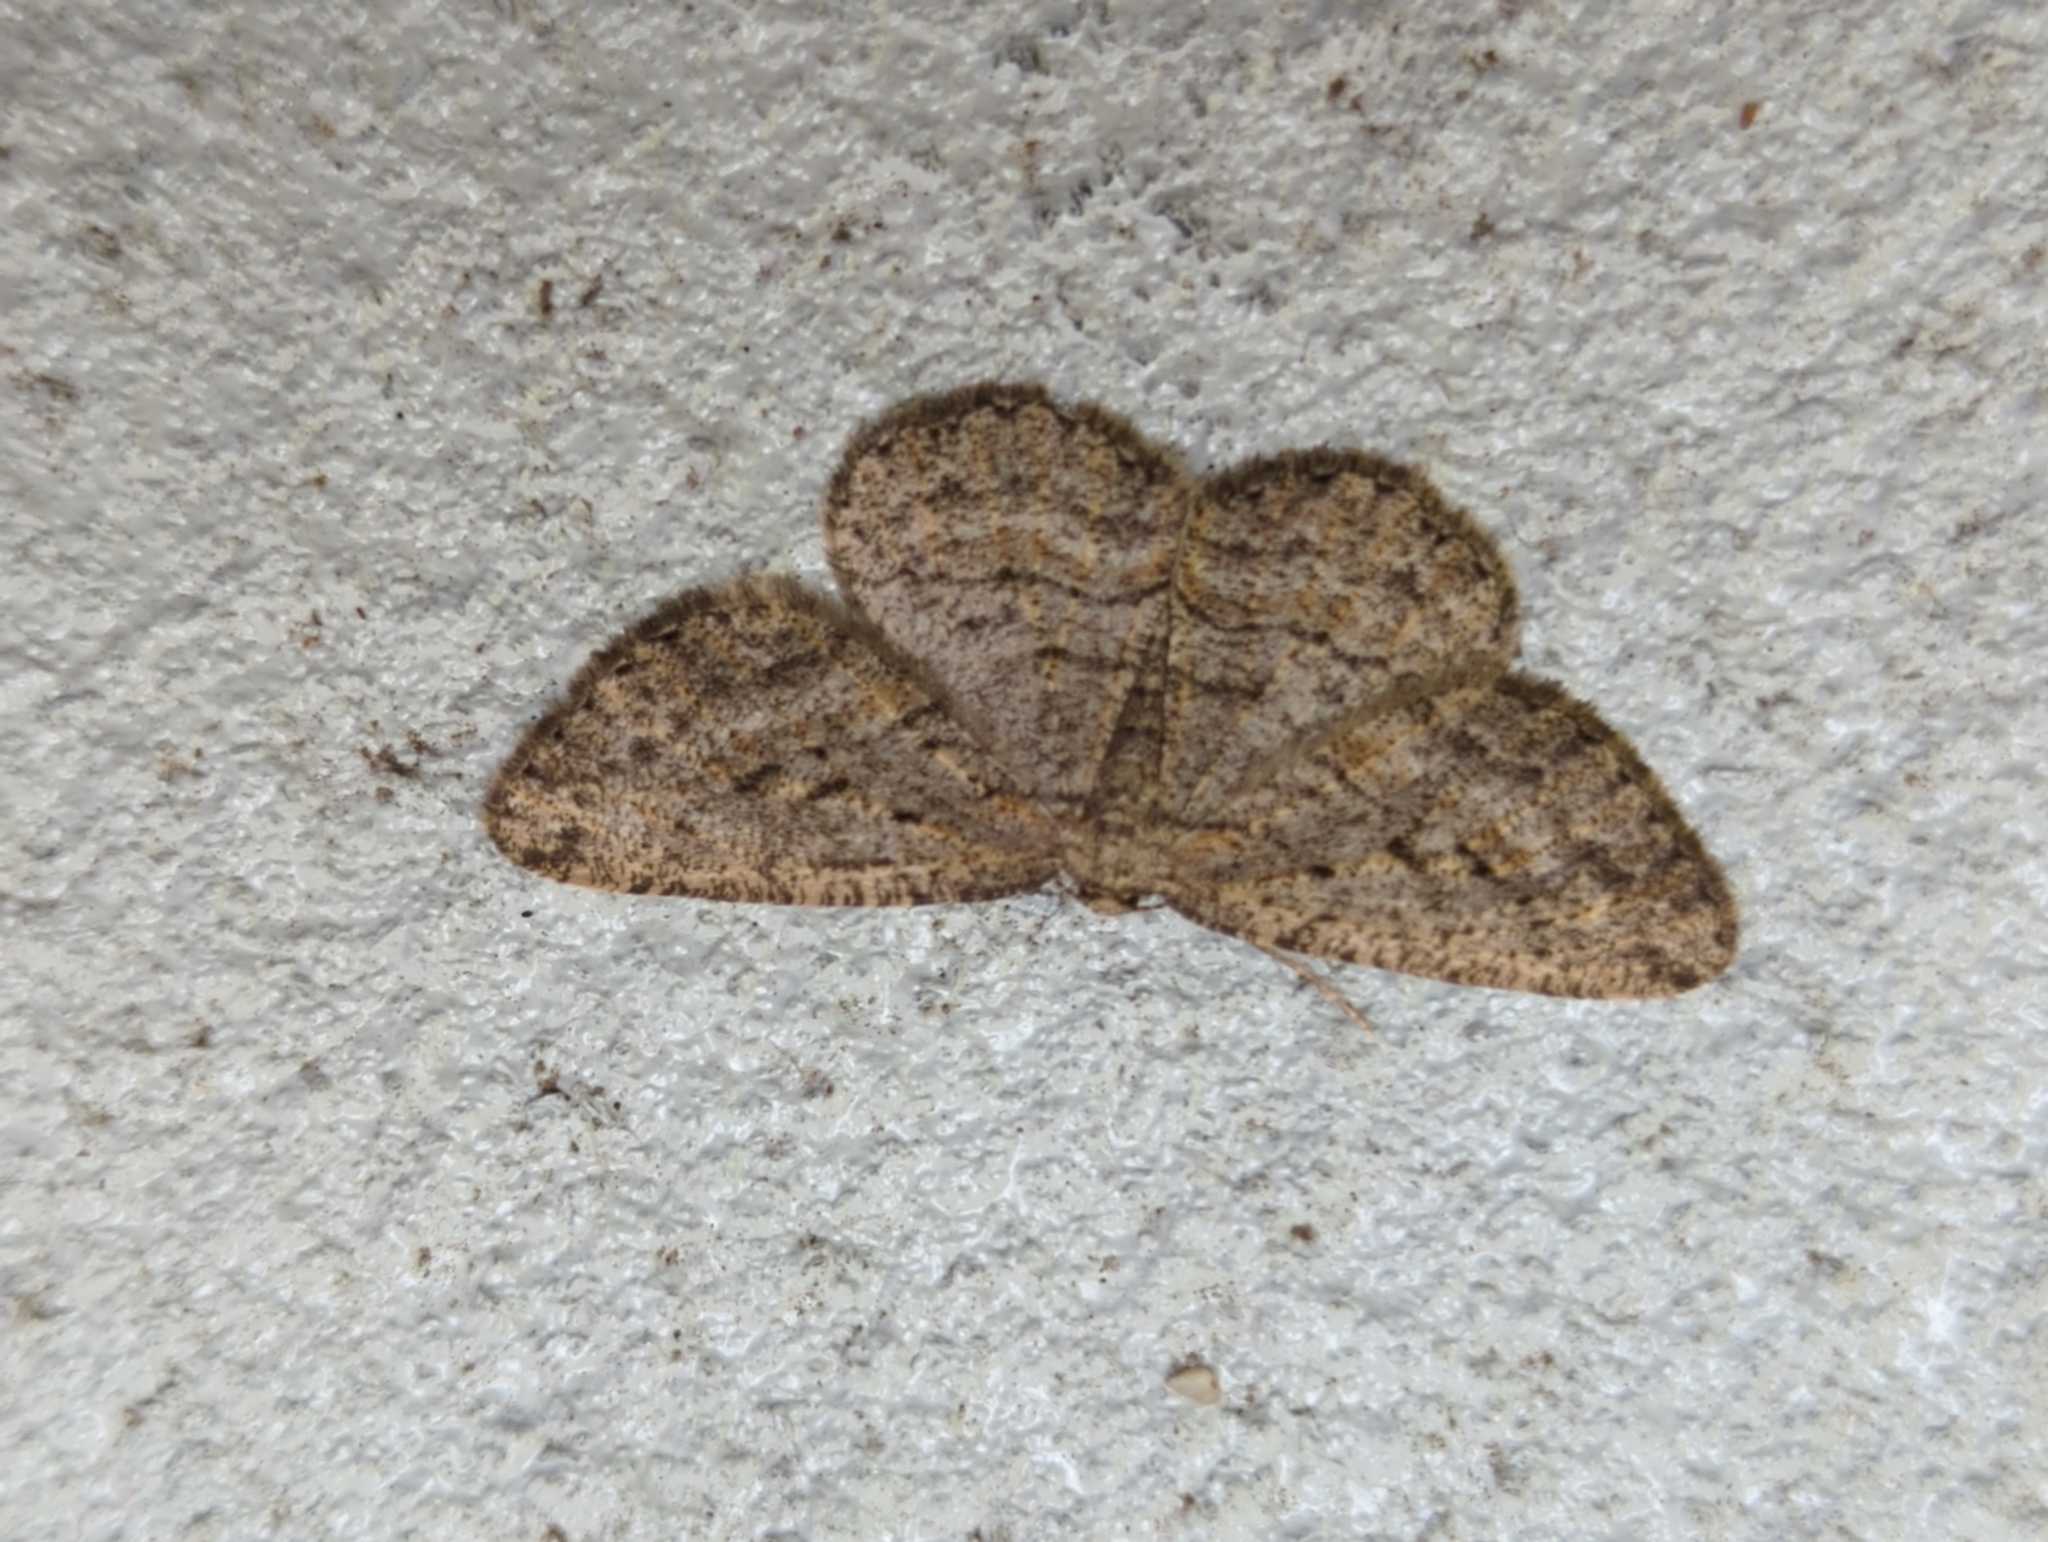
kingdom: Animalia
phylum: Arthropoda
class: Insecta
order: Lepidoptera
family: Geometridae
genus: Zermizinga
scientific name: Zermizinga sinuata
